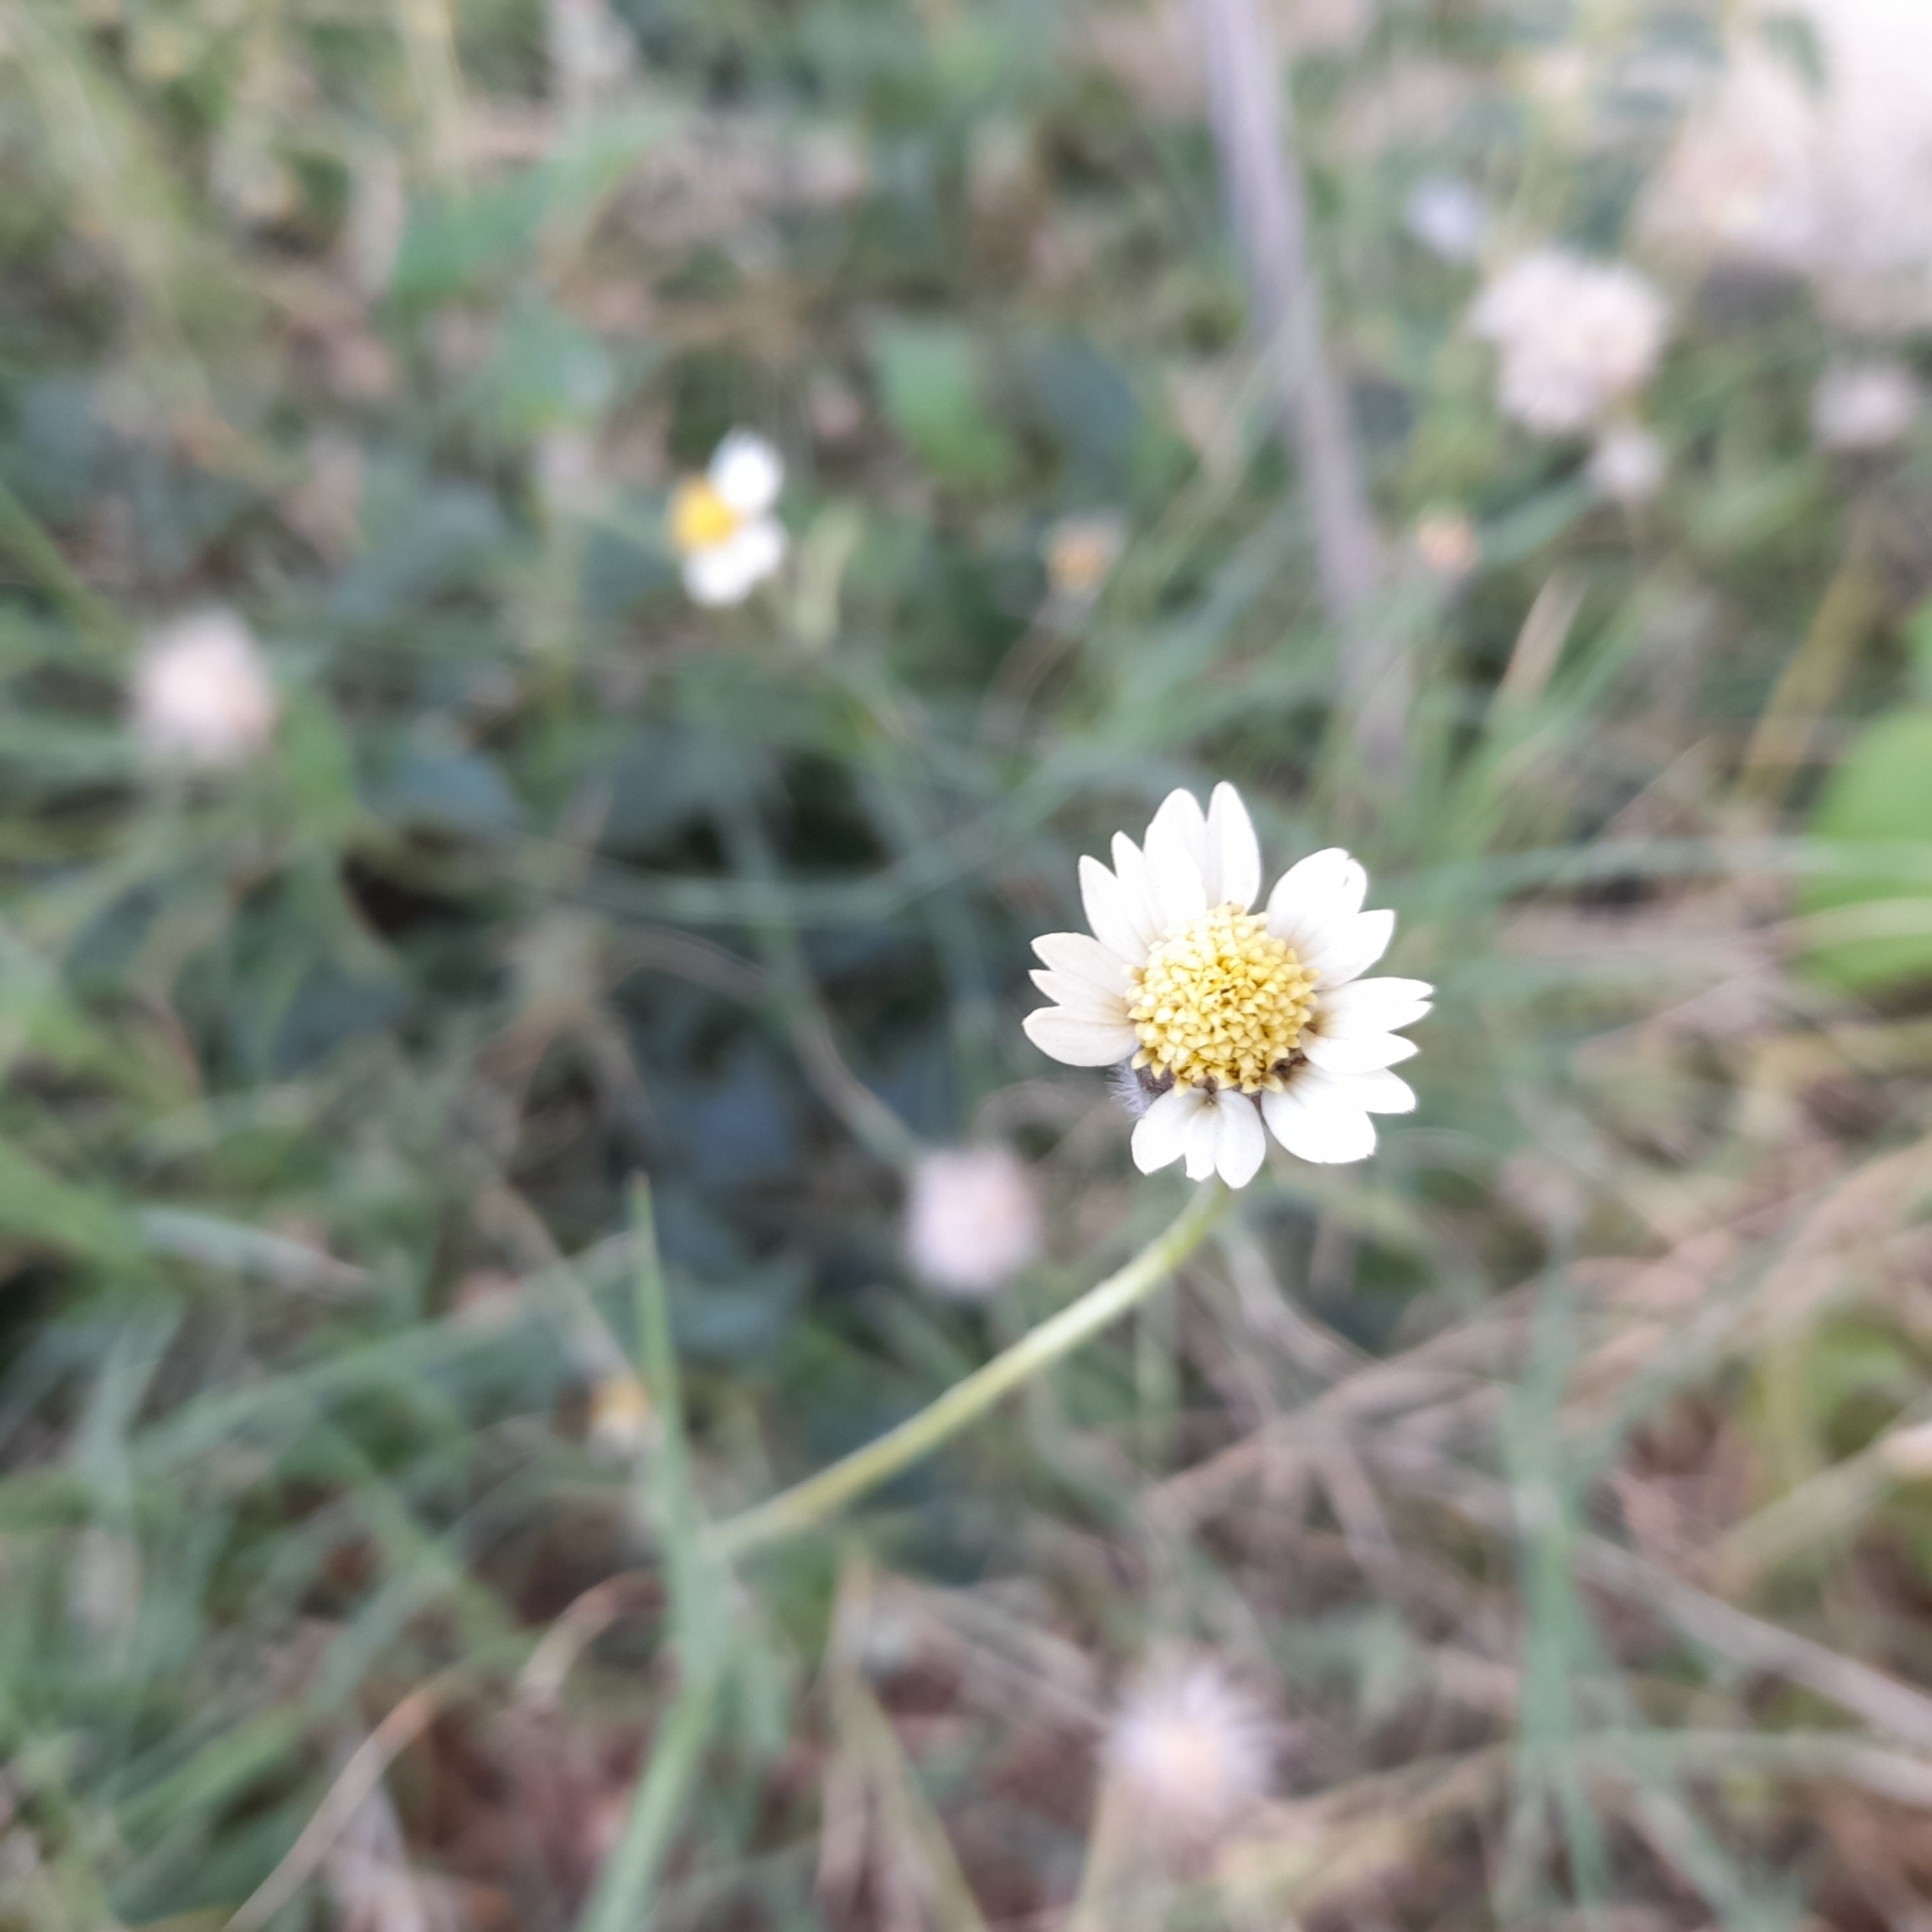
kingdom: Plantae
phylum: Tracheophyta
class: Magnoliopsida
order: Asterales
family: Asteraceae
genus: Tridax
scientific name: Tridax procumbens
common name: Coatbuttons
